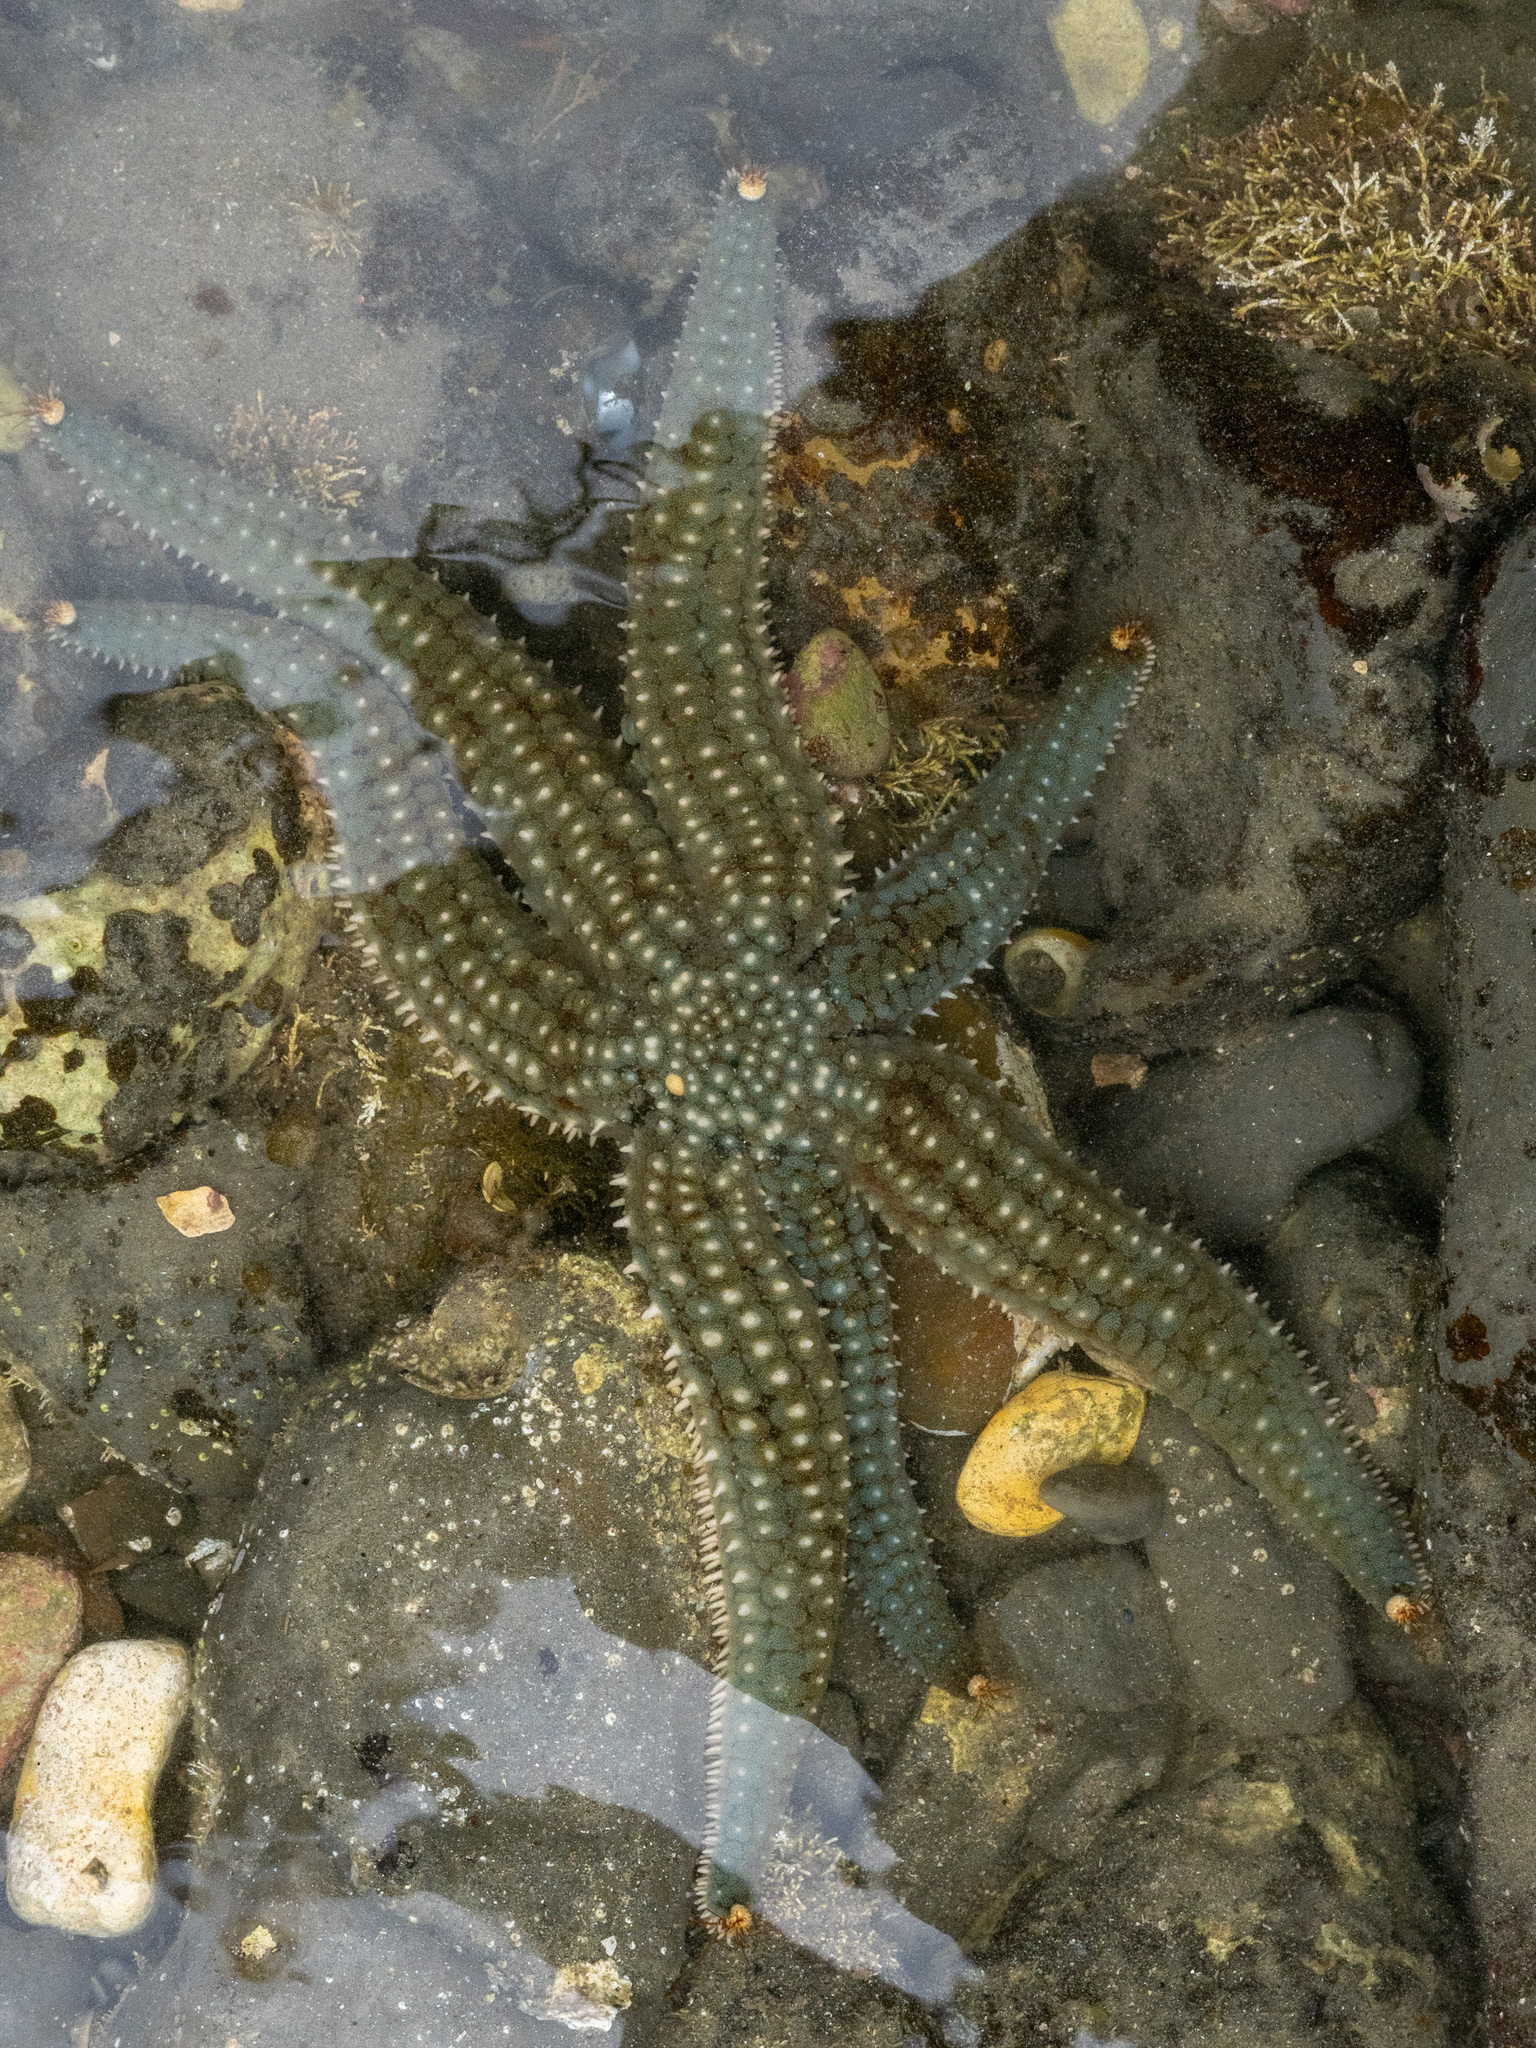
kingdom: Animalia
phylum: Echinodermata
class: Asteroidea
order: Forcipulatida
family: Asteriidae
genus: Astrostole
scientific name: Astrostole scabra
